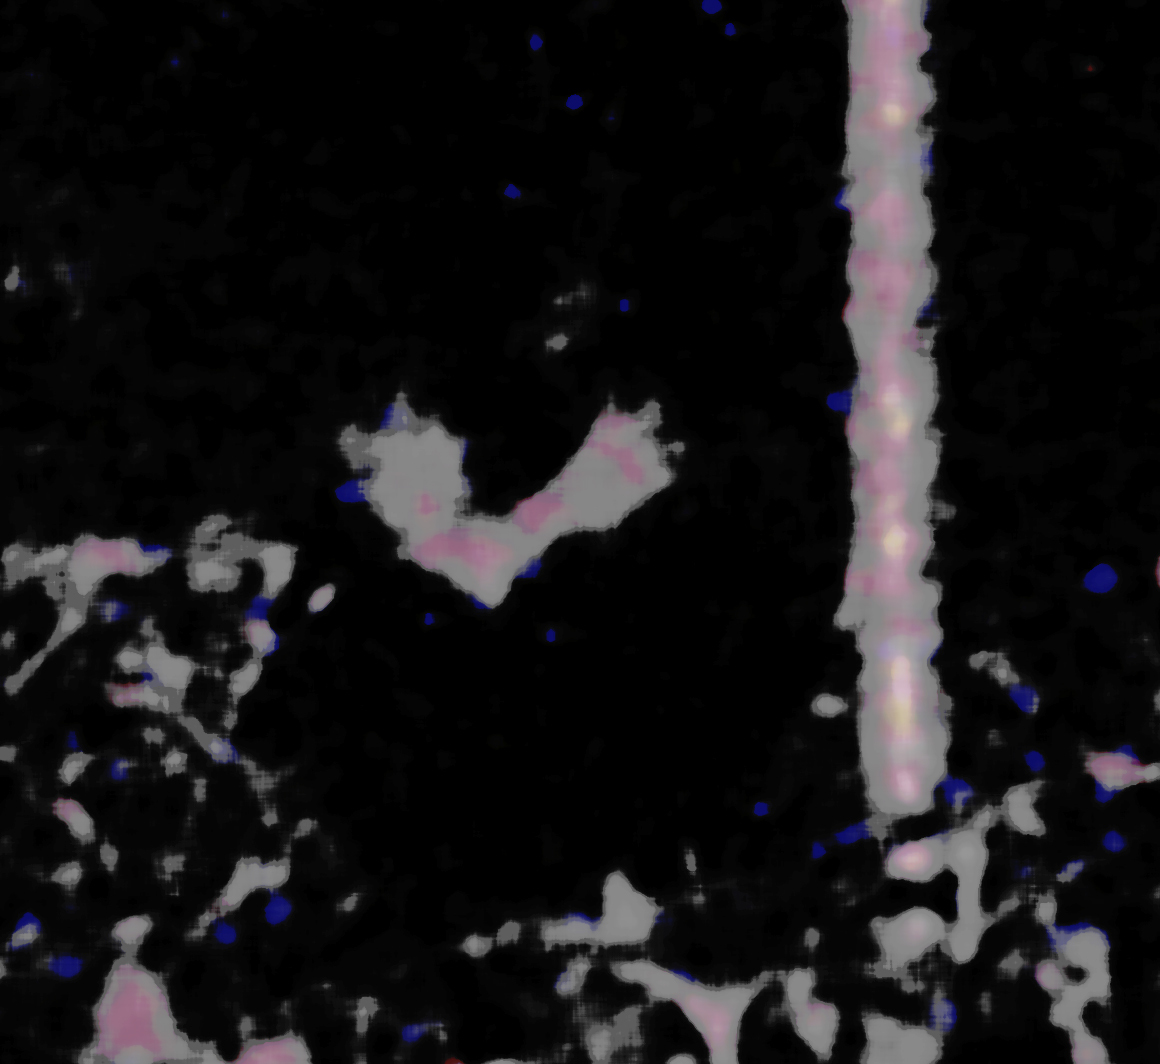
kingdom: Animalia
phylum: Chordata
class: Mammalia
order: Carnivora
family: Mephitidae
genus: Mephitis
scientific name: Mephitis mephitis
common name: Striped skunk
